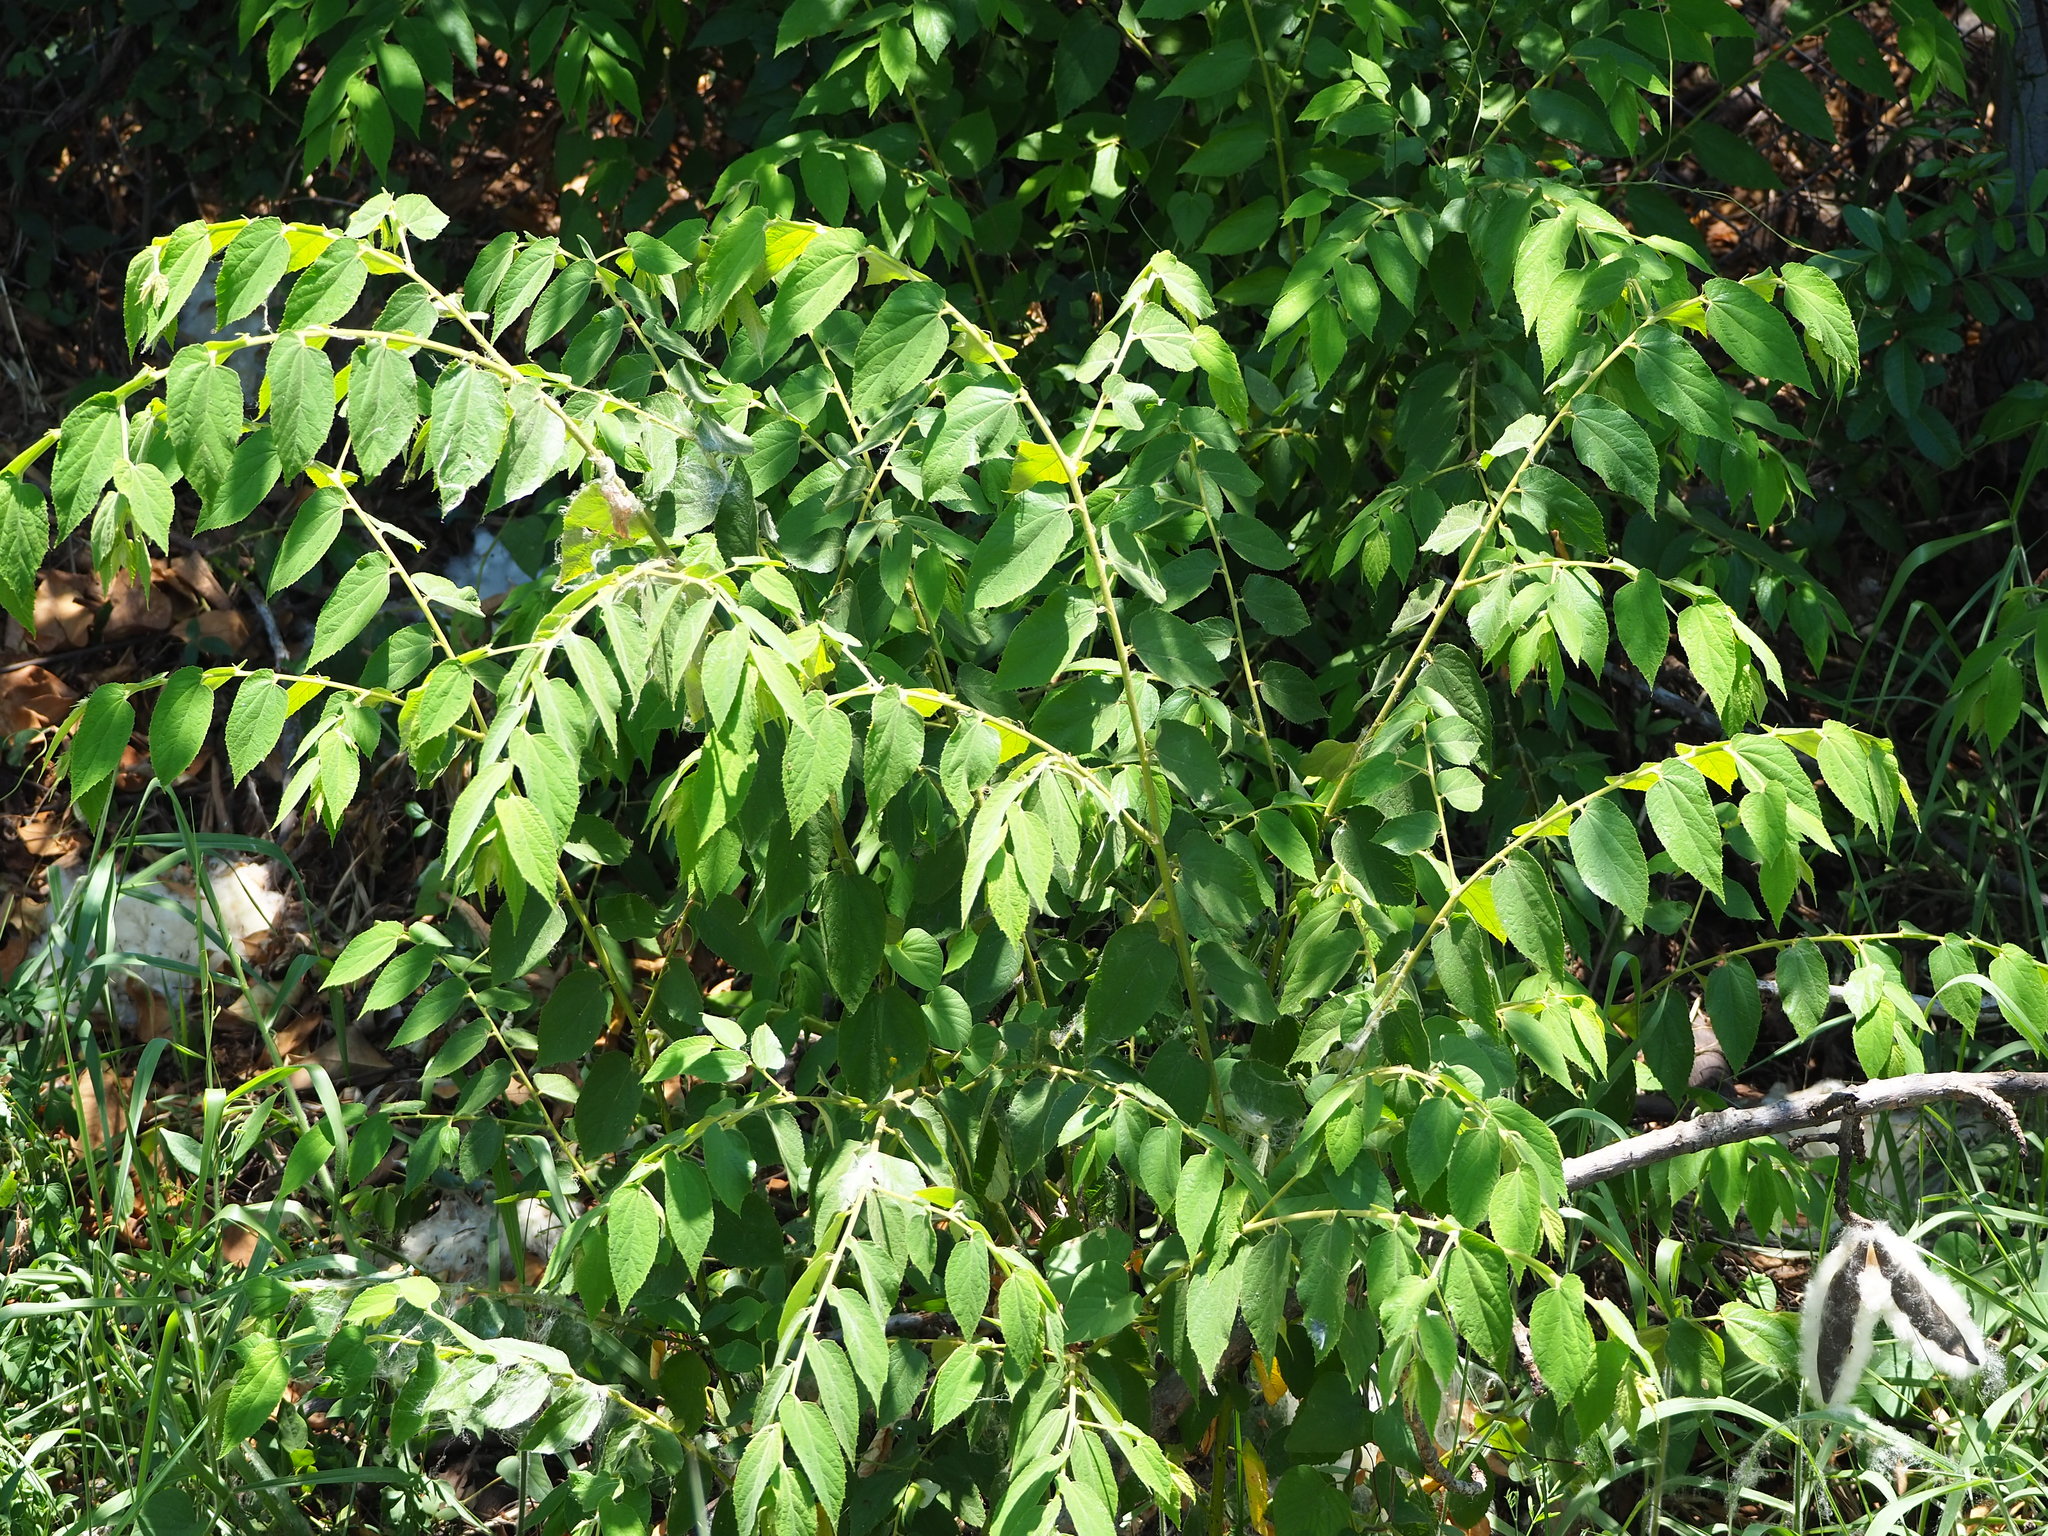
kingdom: Plantae
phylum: Tracheophyta
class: Magnoliopsida
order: Malvales
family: Muntingiaceae
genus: Muntingia
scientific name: Muntingia calabura
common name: Strawberrytree
